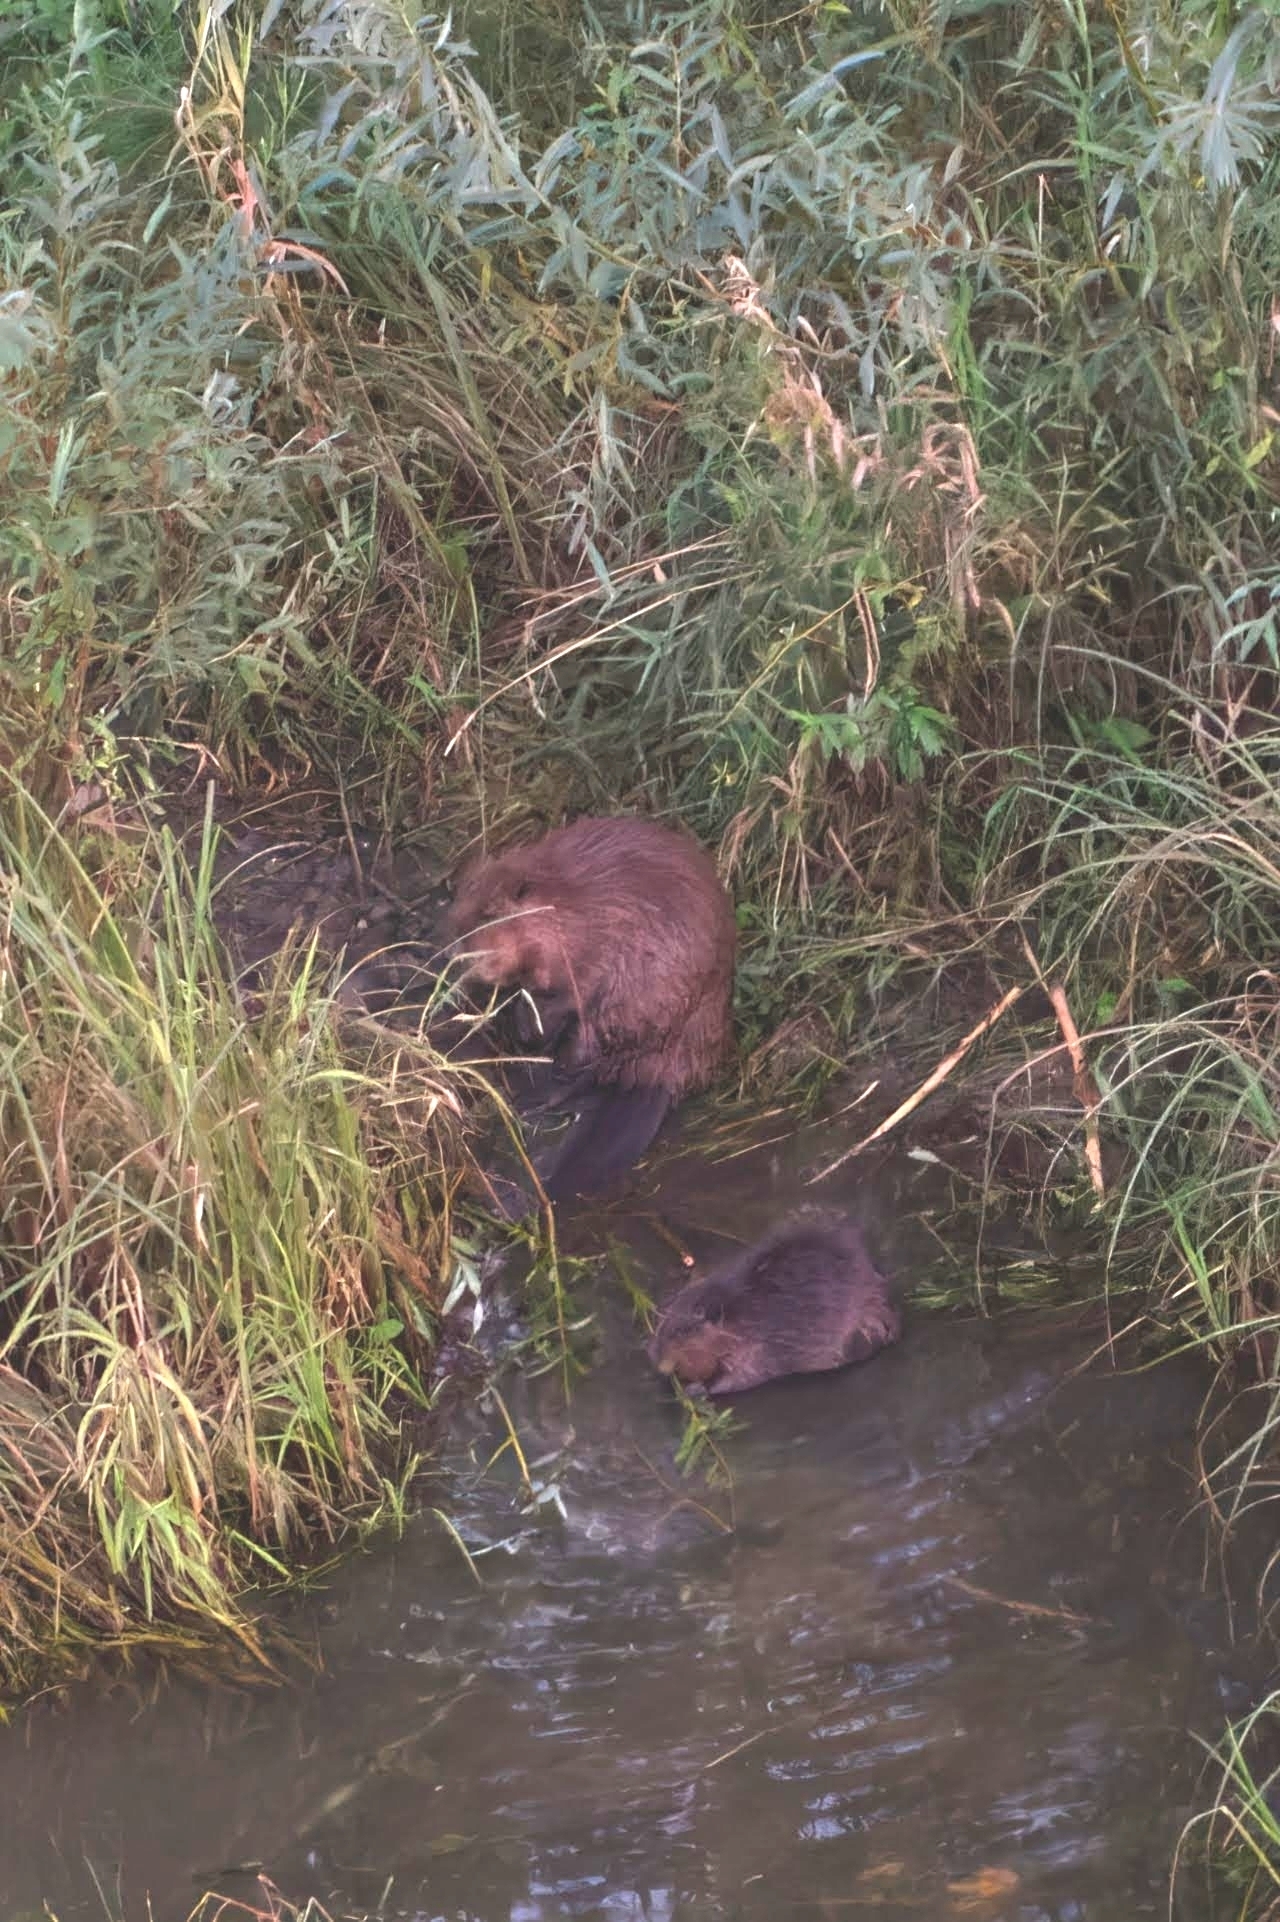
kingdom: Animalia
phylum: Chordata
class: Mammalia
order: Rodentia
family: Castoridae
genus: Castor
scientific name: Castor fiber
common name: Eurasian beaver
